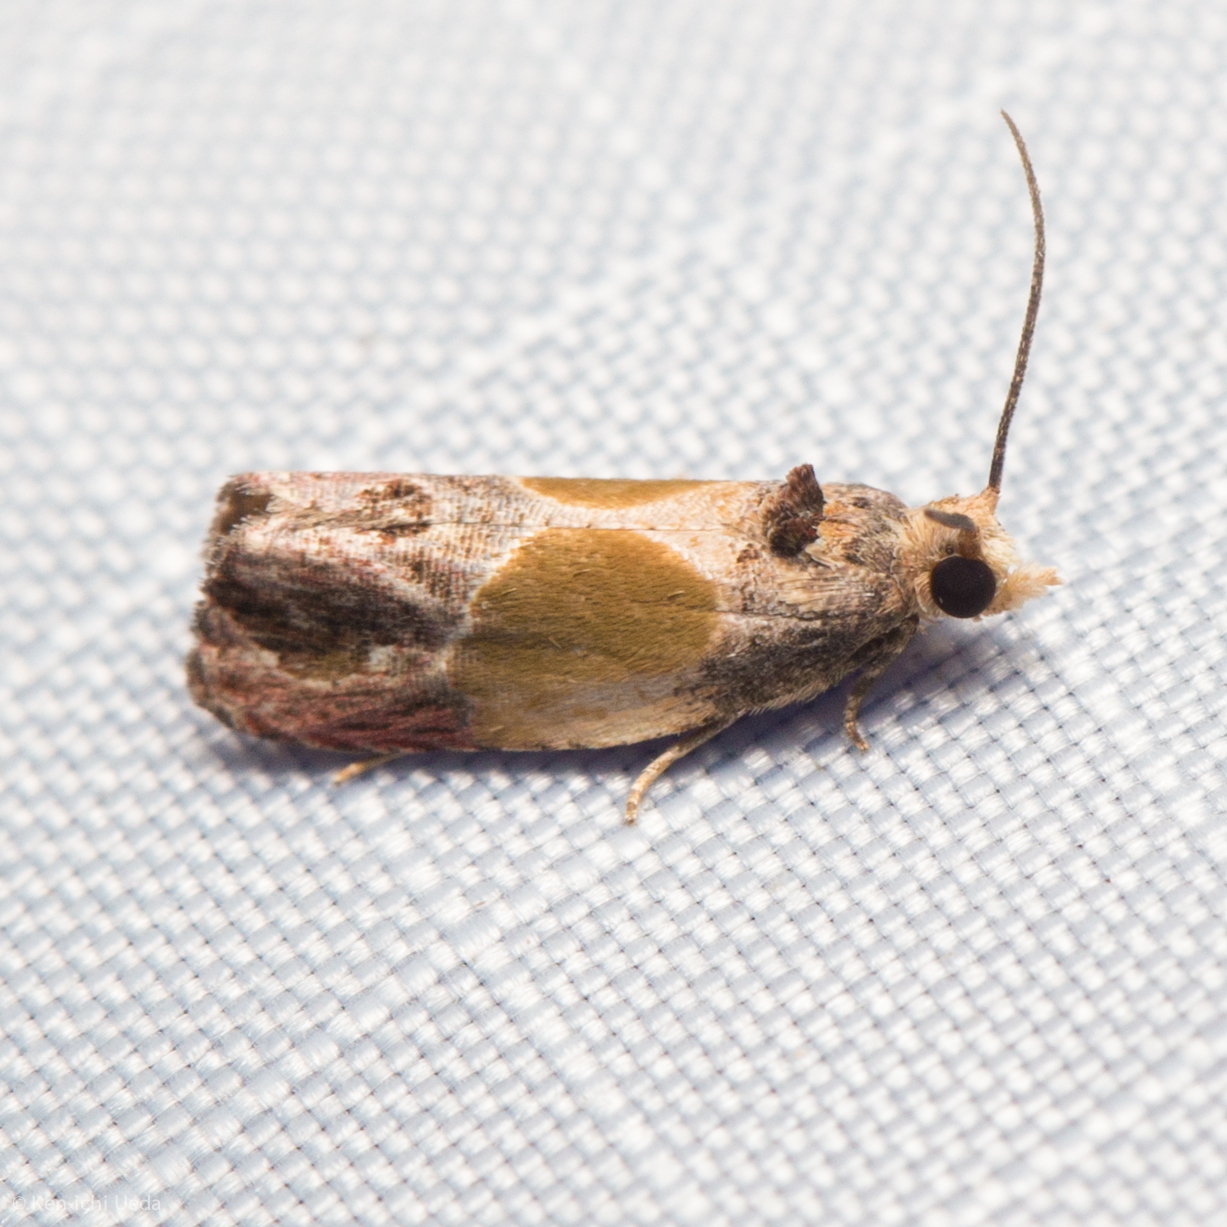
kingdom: Animalia
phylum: Arthropoda
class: Insecta
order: Lepidoptera
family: Tortricidae
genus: Eumarozia
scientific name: Eumarozia malachitana
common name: Sculptured moth
